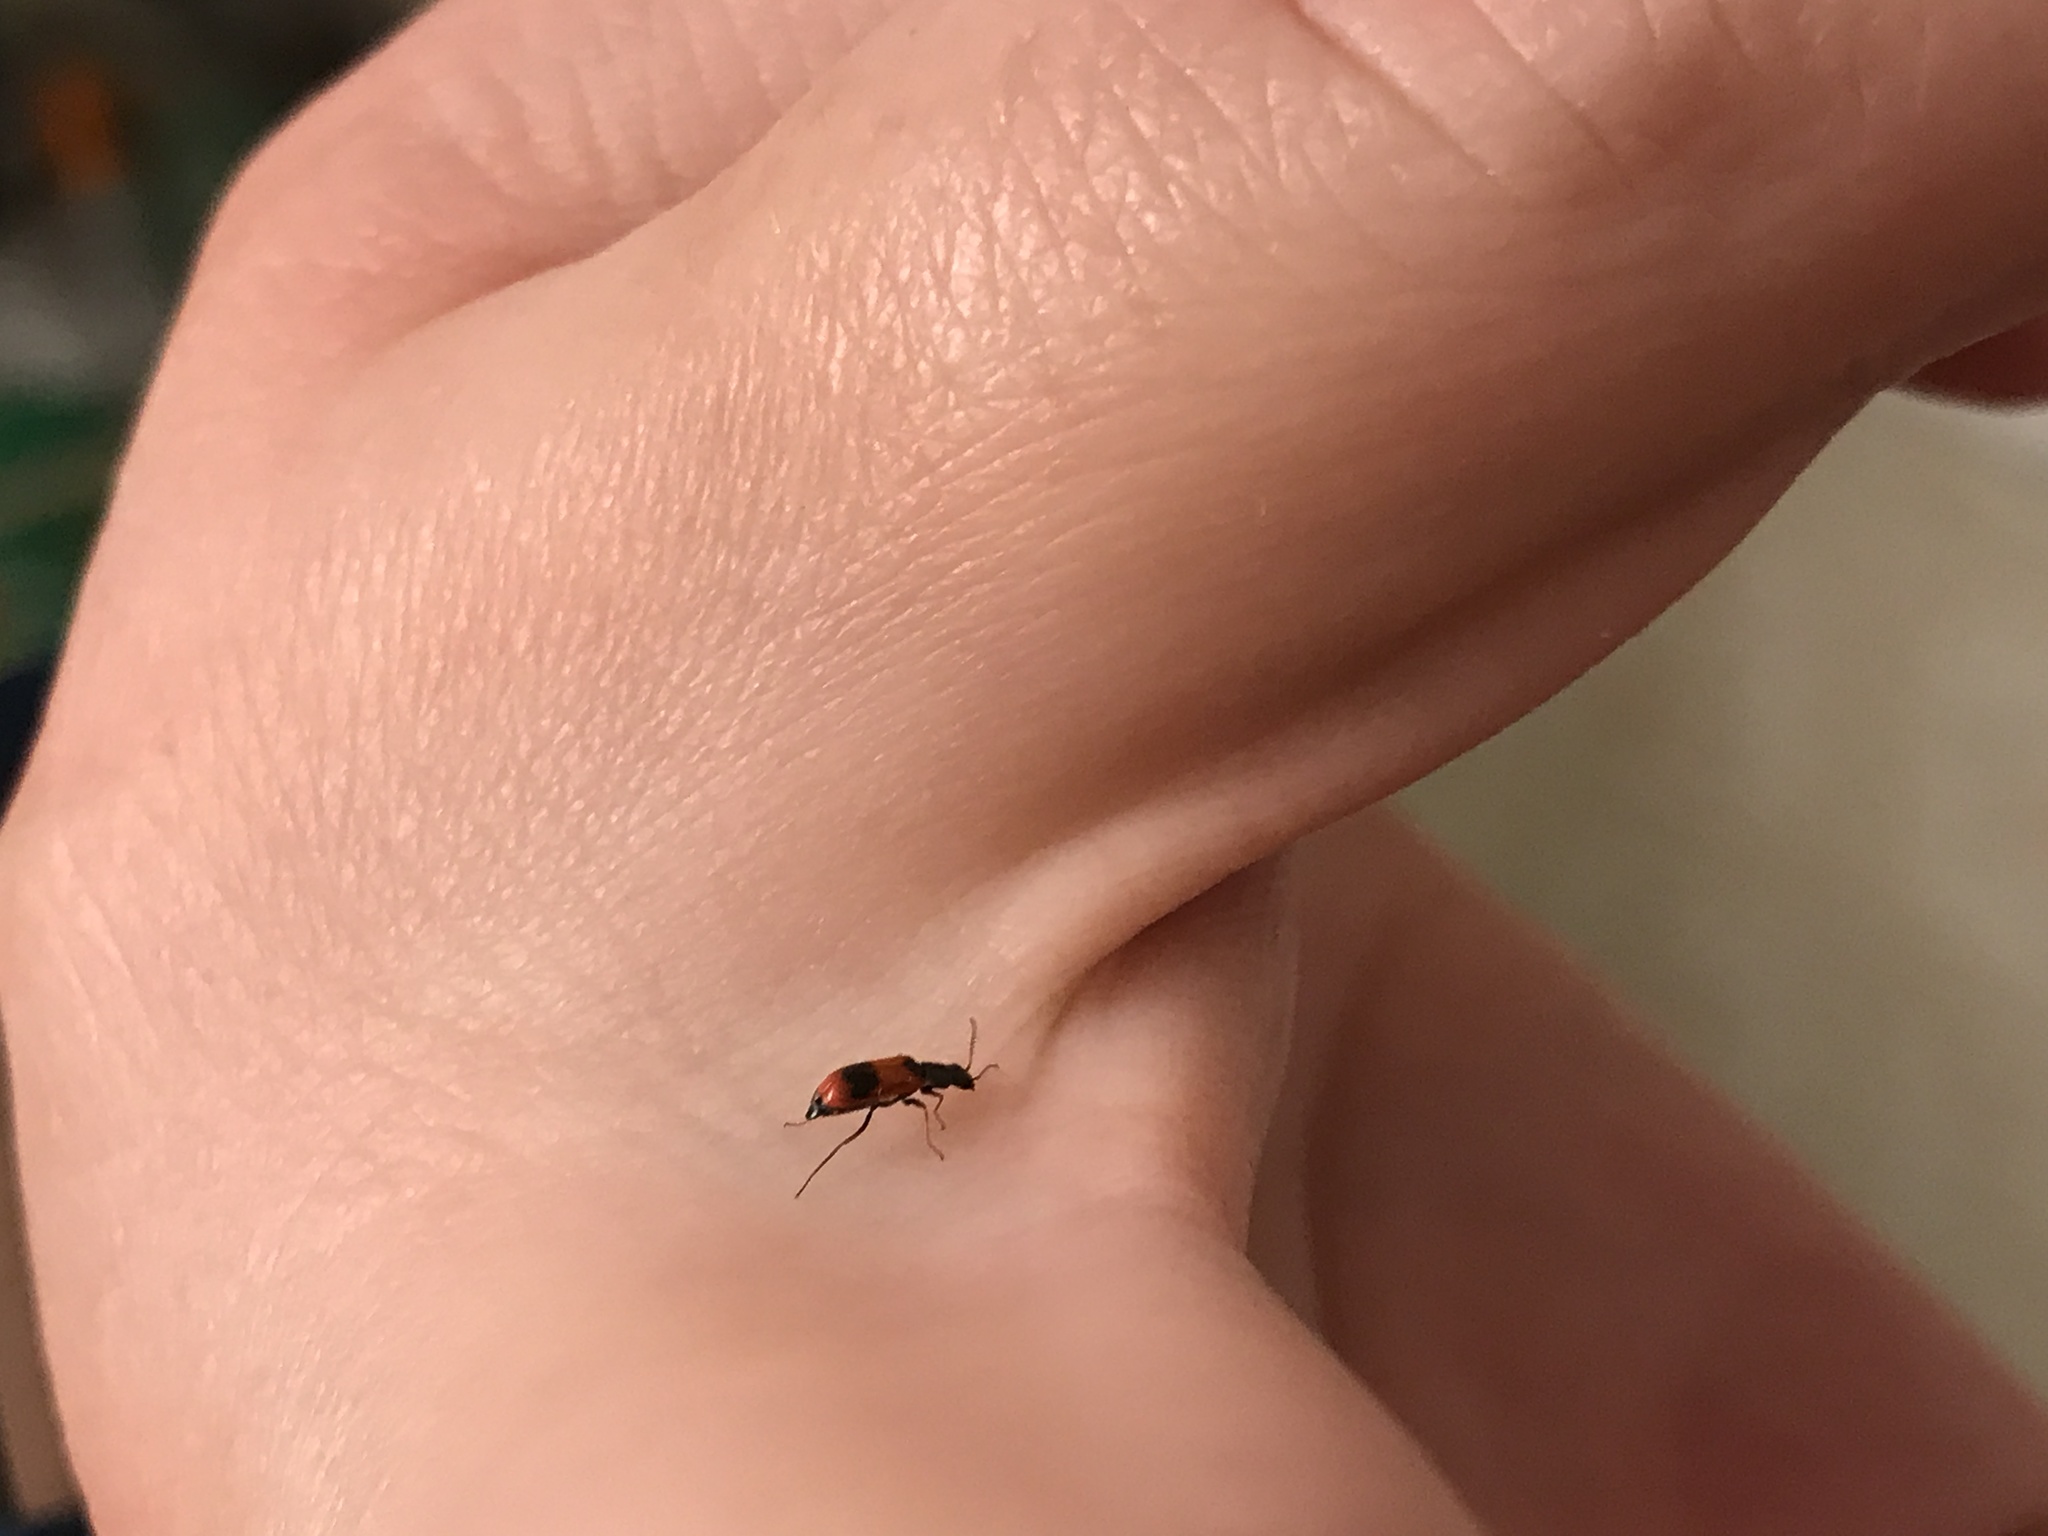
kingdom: Animalia
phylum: Arthropoda
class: Insecta
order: Coleoptera
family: Melyridae
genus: Anthocomus
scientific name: Anthocomus equestris
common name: Black-banded soft-winged flower beetle
